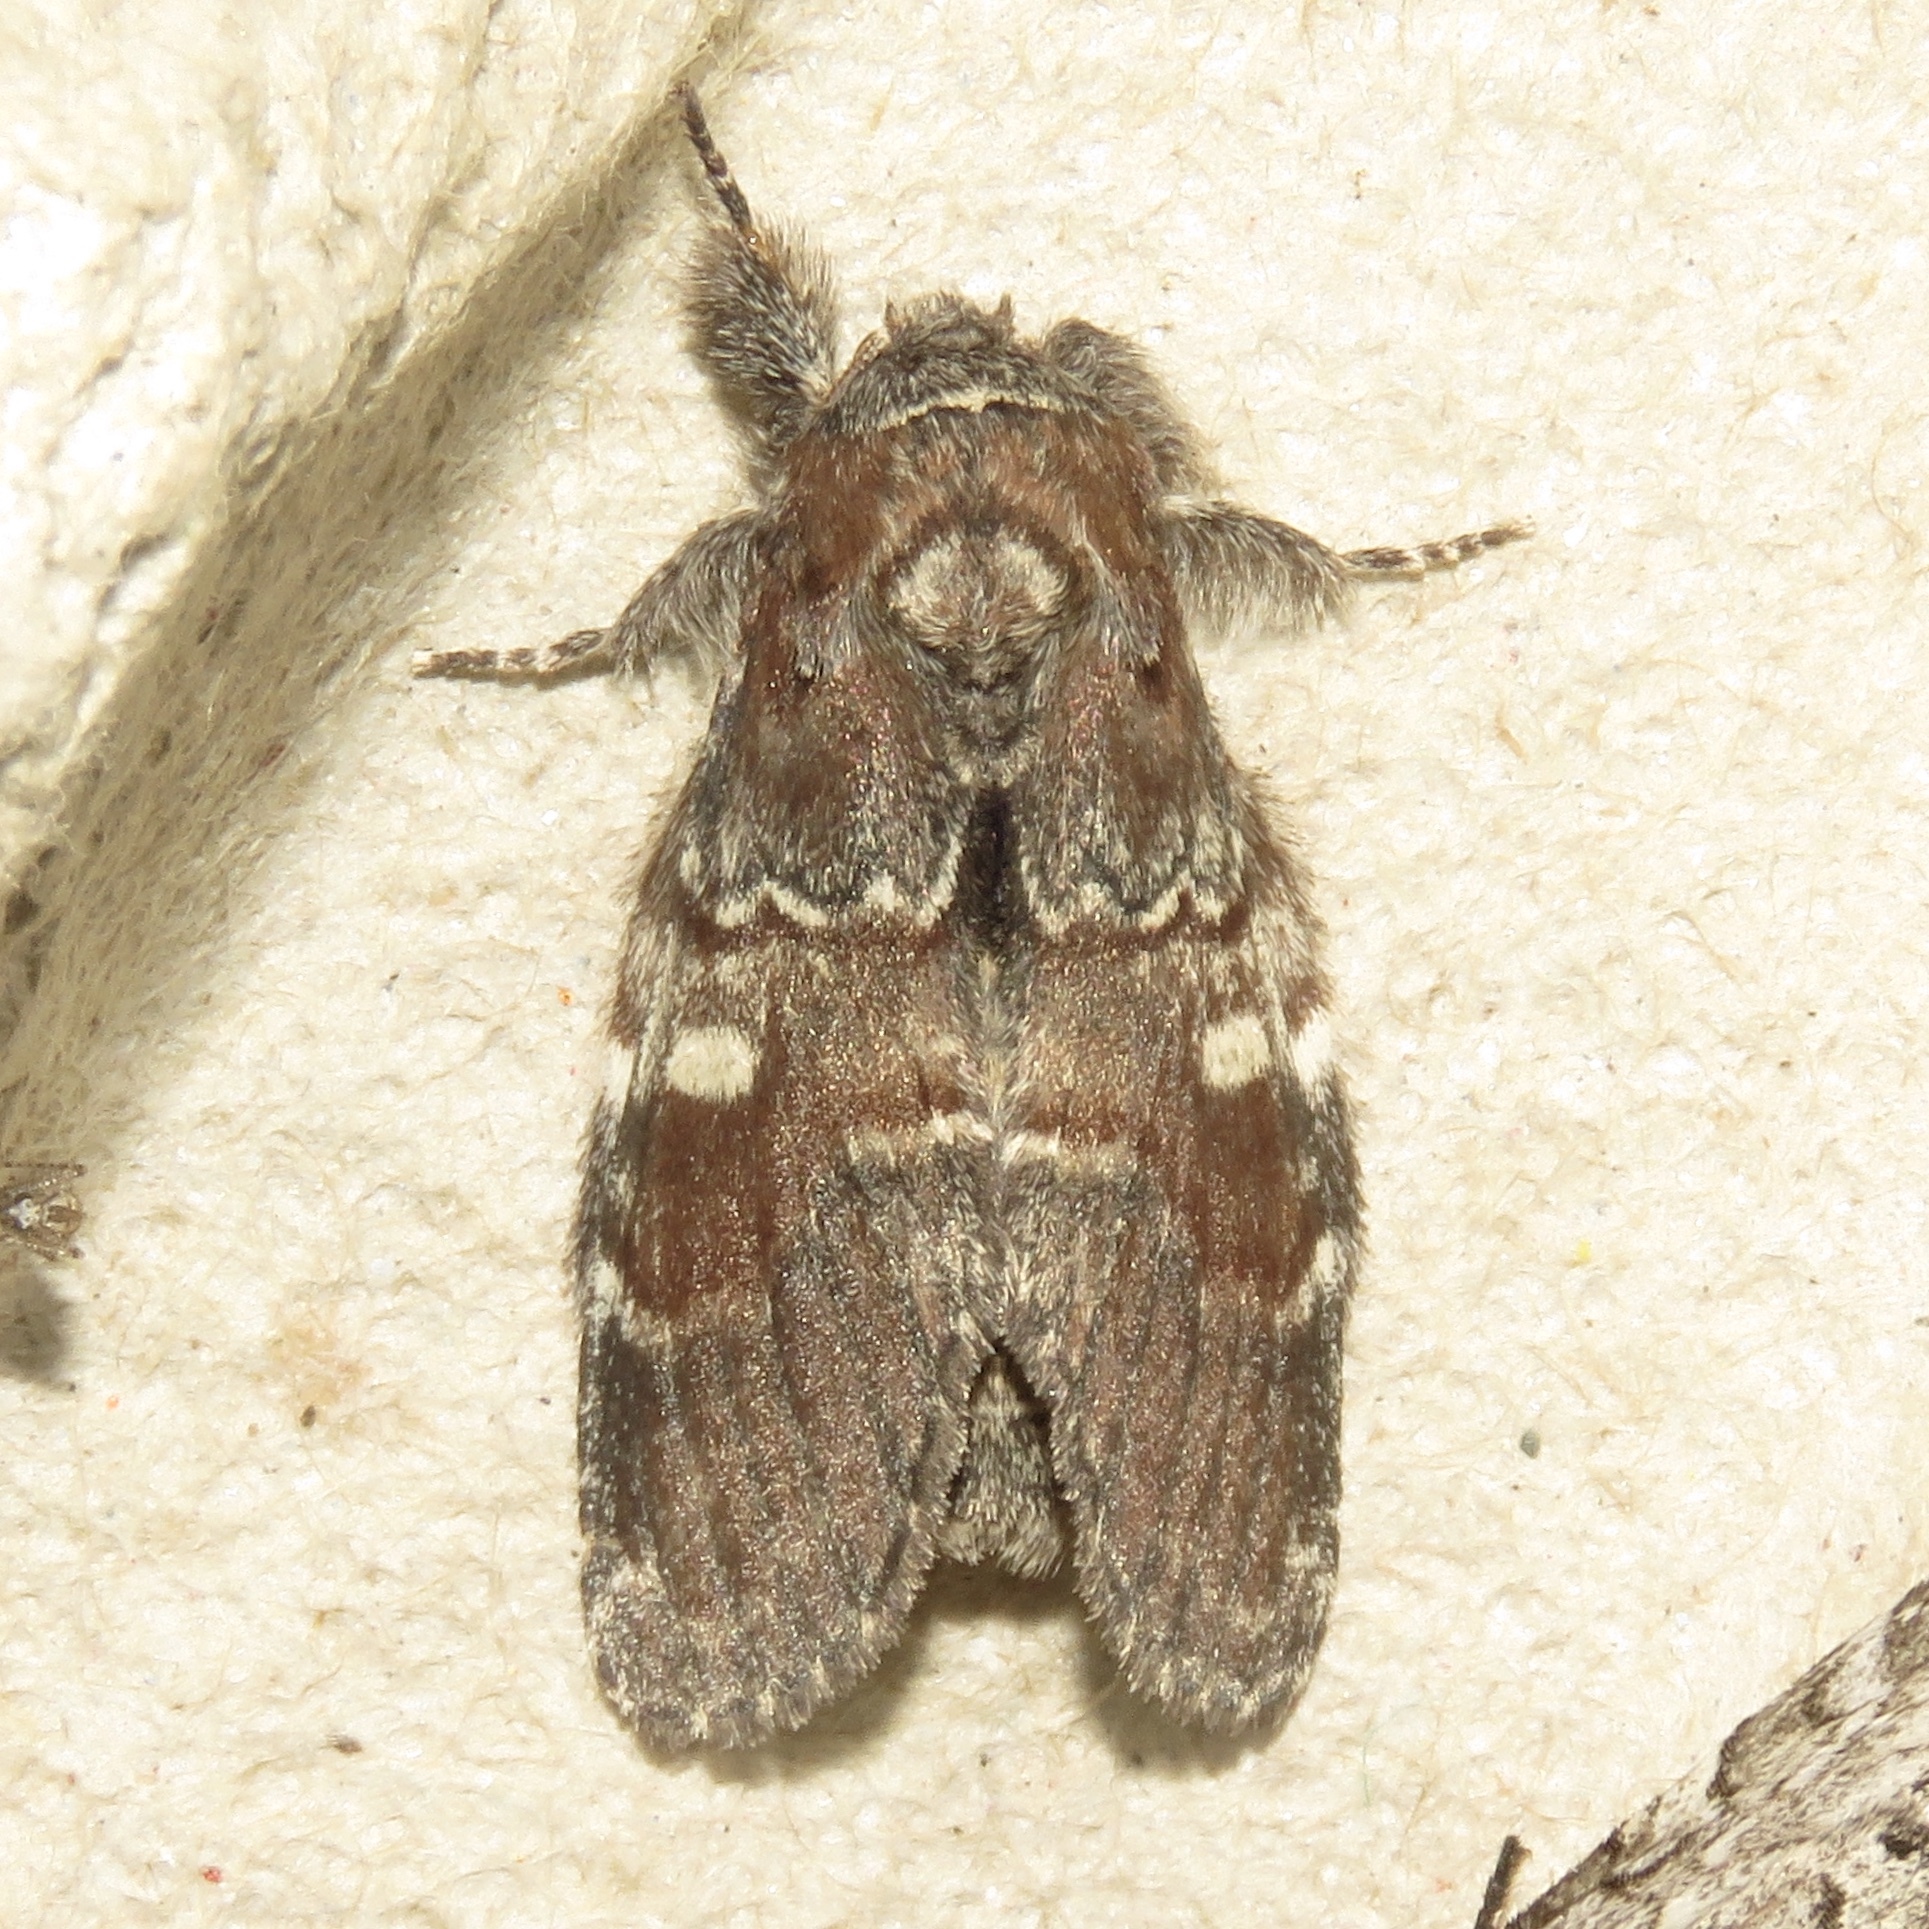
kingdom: Animalia
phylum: Arthropoda
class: Insecta
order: Lepidoptera
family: Notodontidae
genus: Peridea
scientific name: Peridea ferruginea
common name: Chocolate prominent
